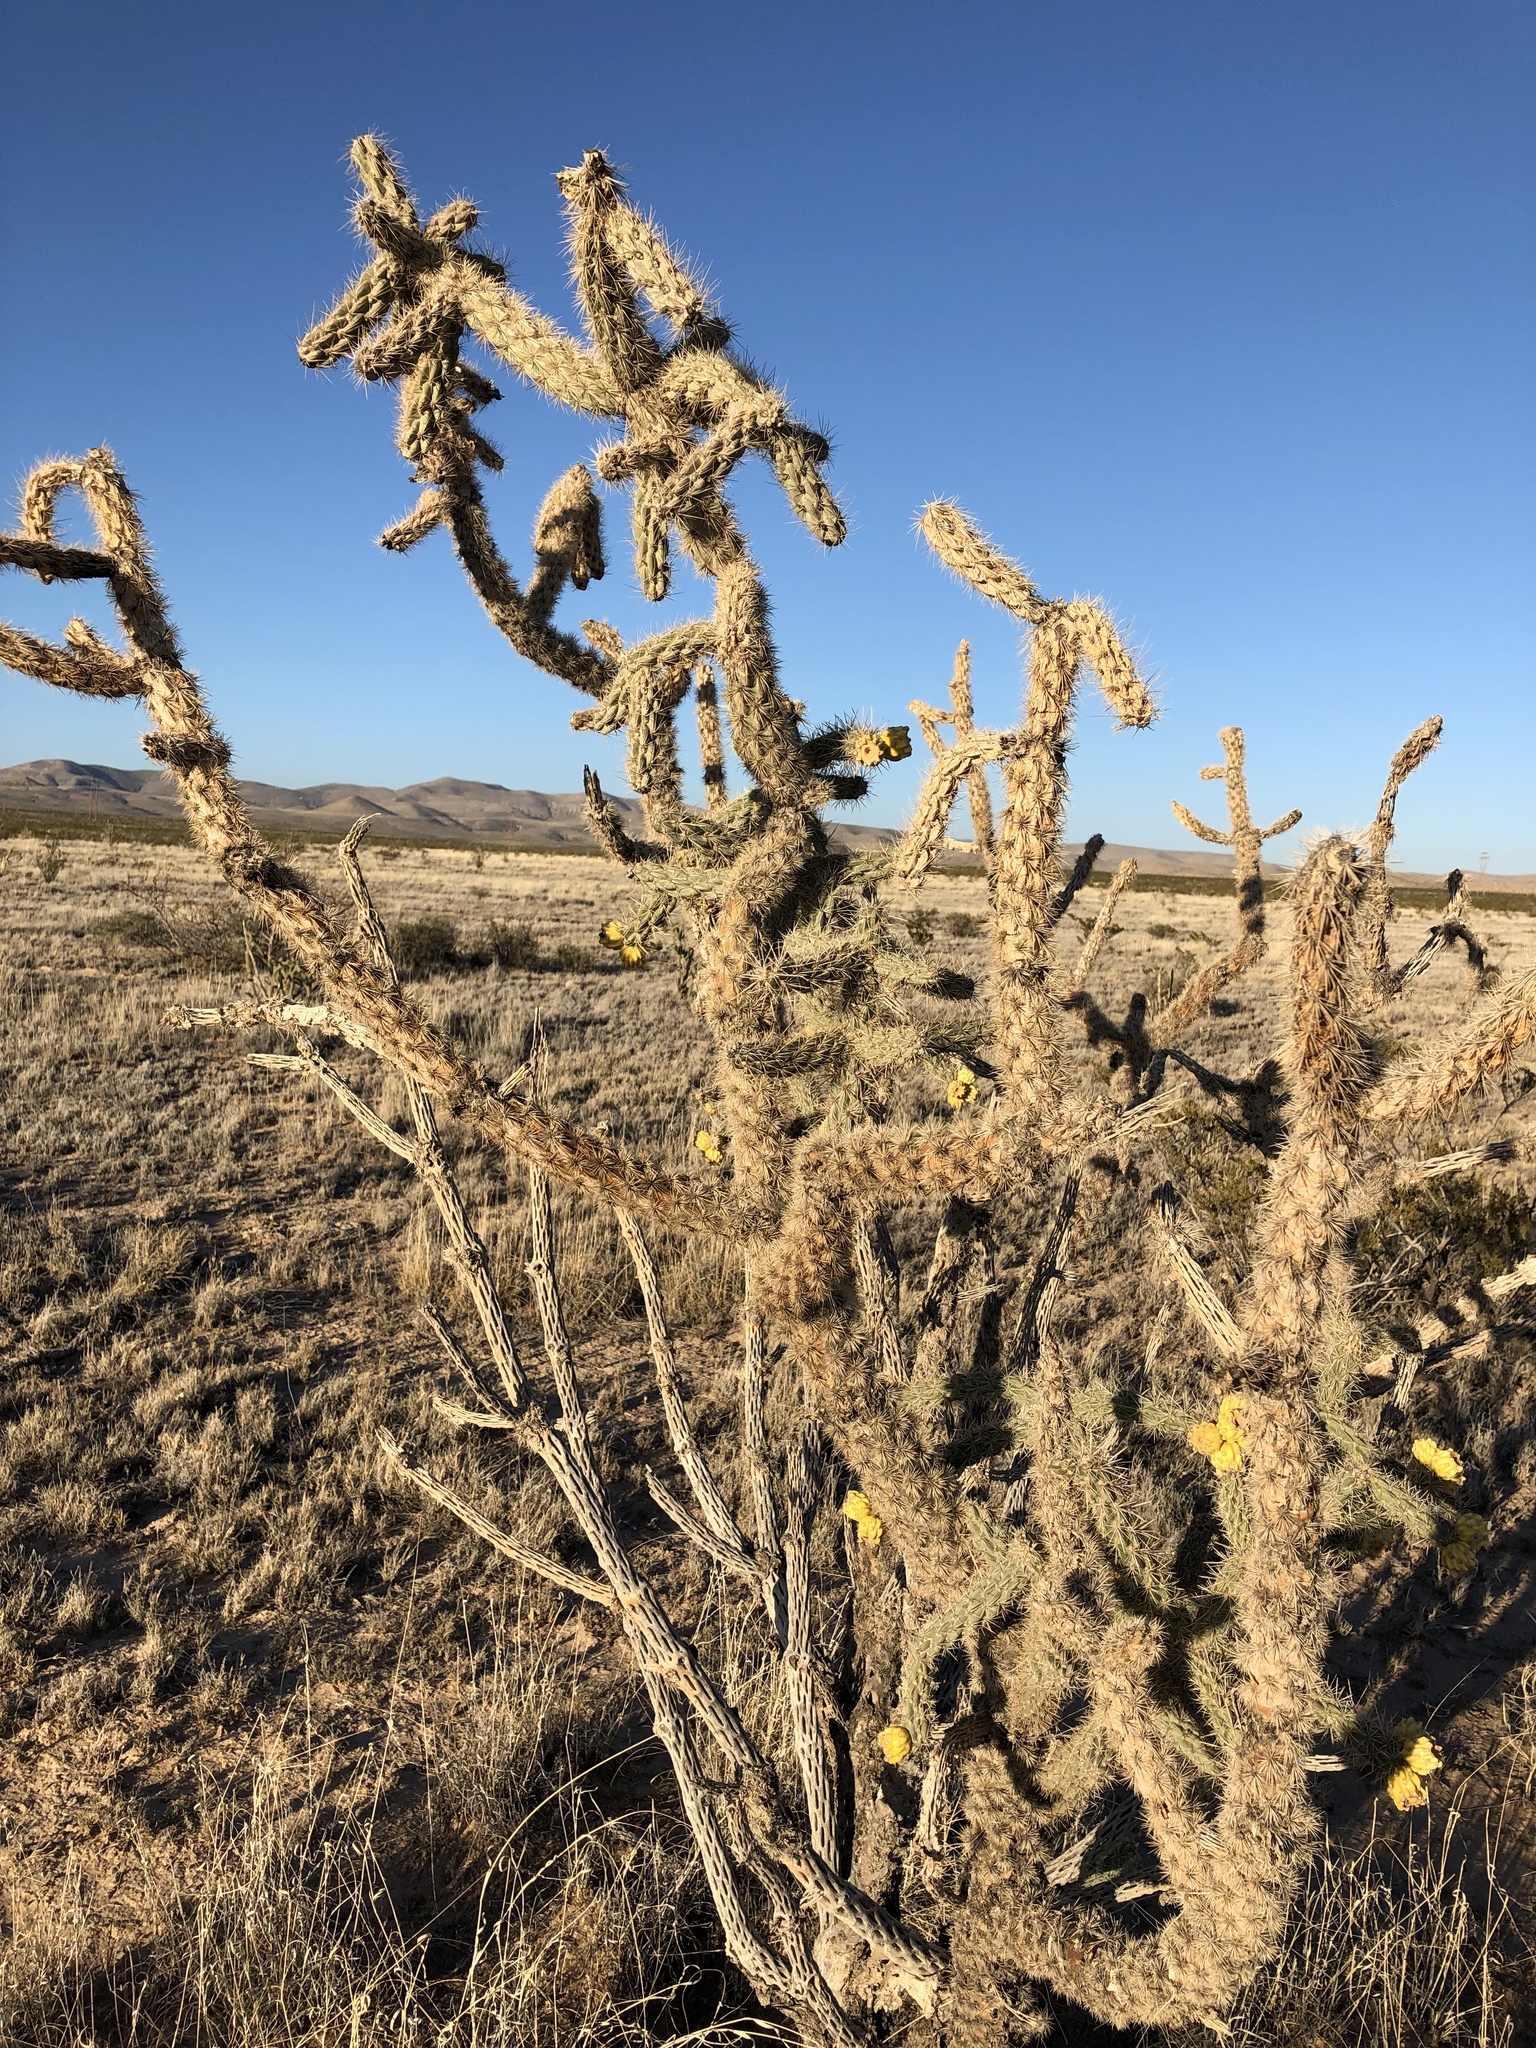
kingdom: Plantae
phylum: Tracheophyta
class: Magnoliopsida
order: Caryophyllales
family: Cactaceae
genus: Cylindropuntia
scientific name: Cylindropuntia imbricata
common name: Candelabrum cactus
